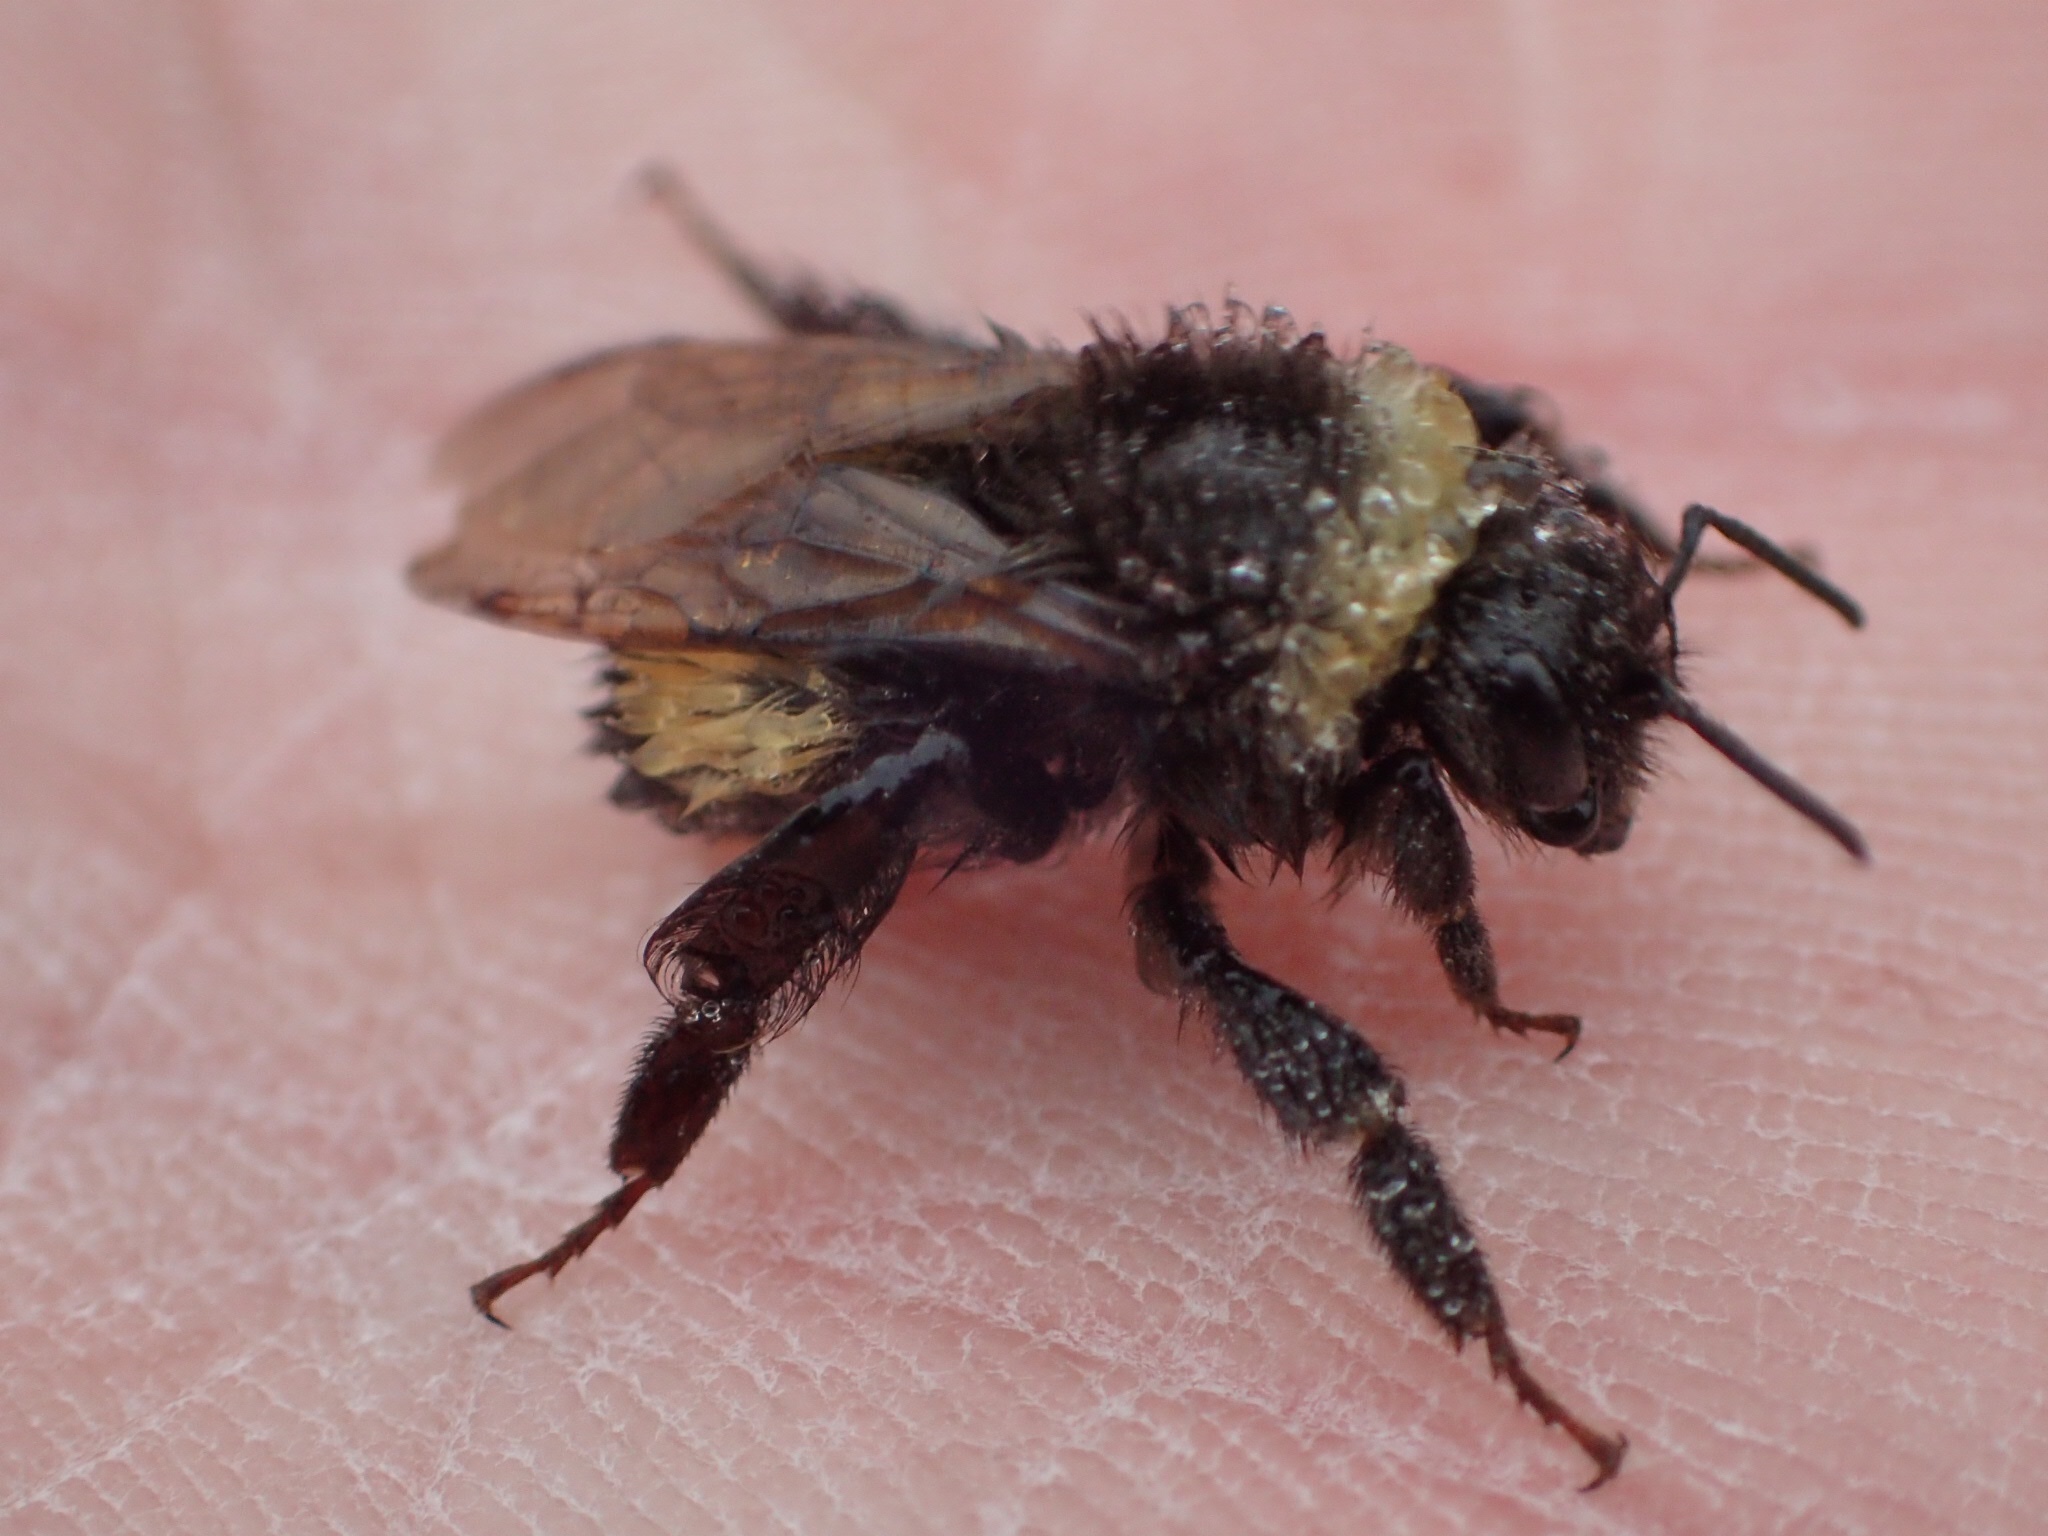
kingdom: Animalia
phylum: Arthropoda
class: Insecta
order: Hymenoptera
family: Apidae
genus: Bombus
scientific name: Bombus terricola
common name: Yellow-banded bumble bee
